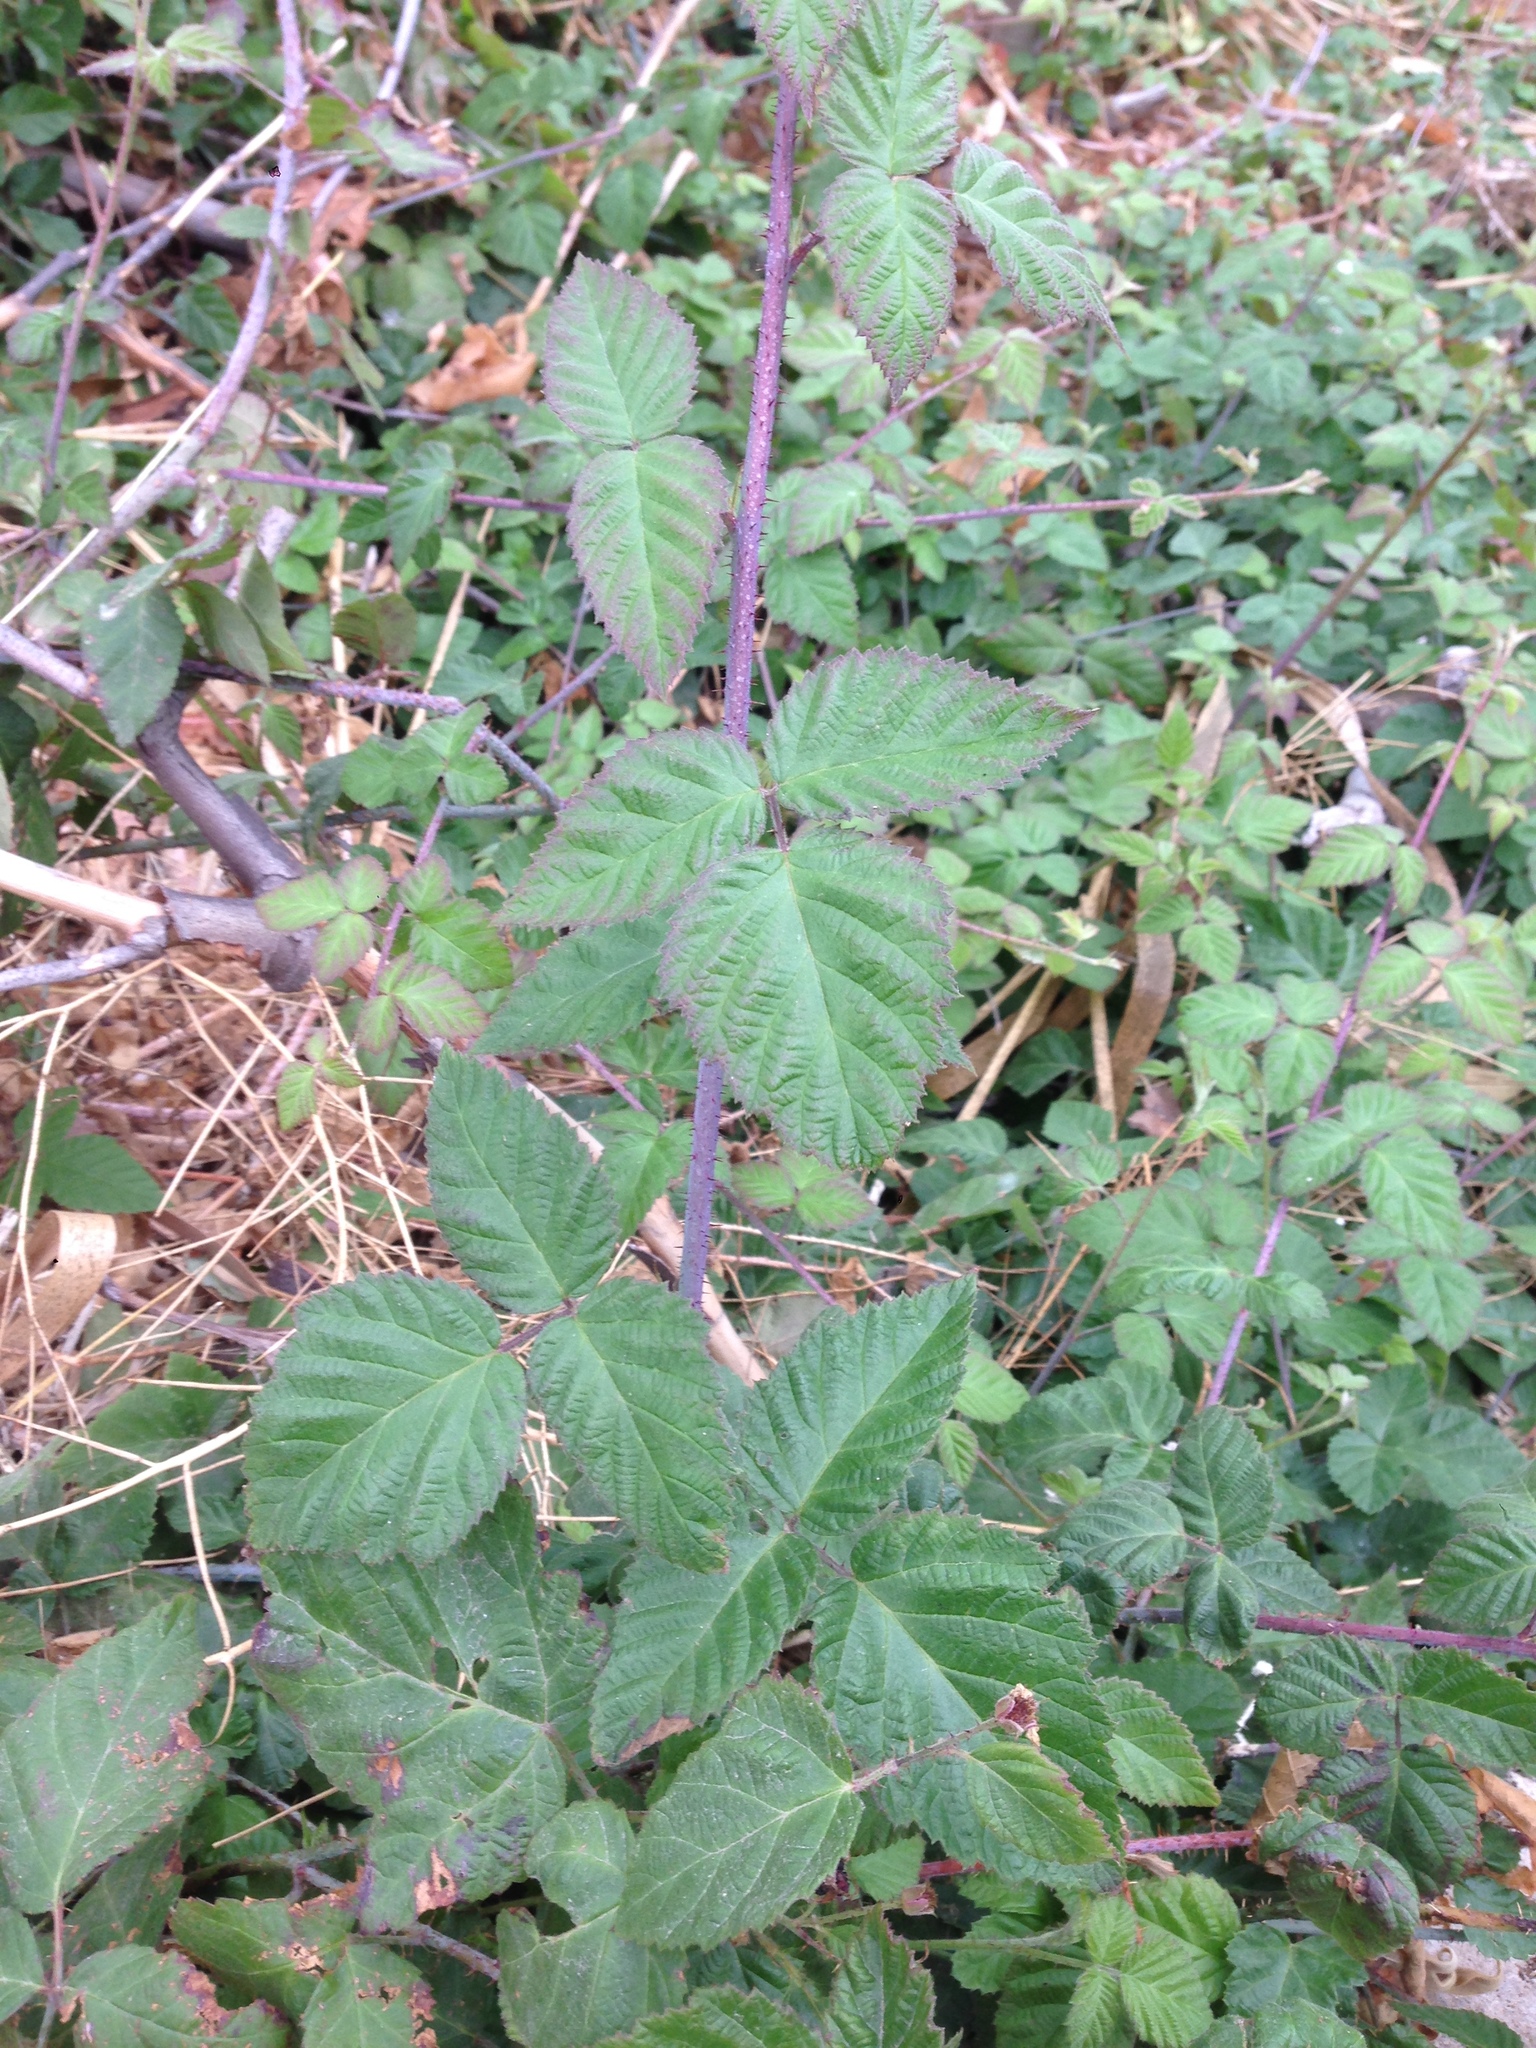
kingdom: Plantae
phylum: Tracheophyta
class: Magnoliopsida
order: Rosales
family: Rosaceae
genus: Rubus
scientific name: Rubus ursinus
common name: Pacific blackberry
